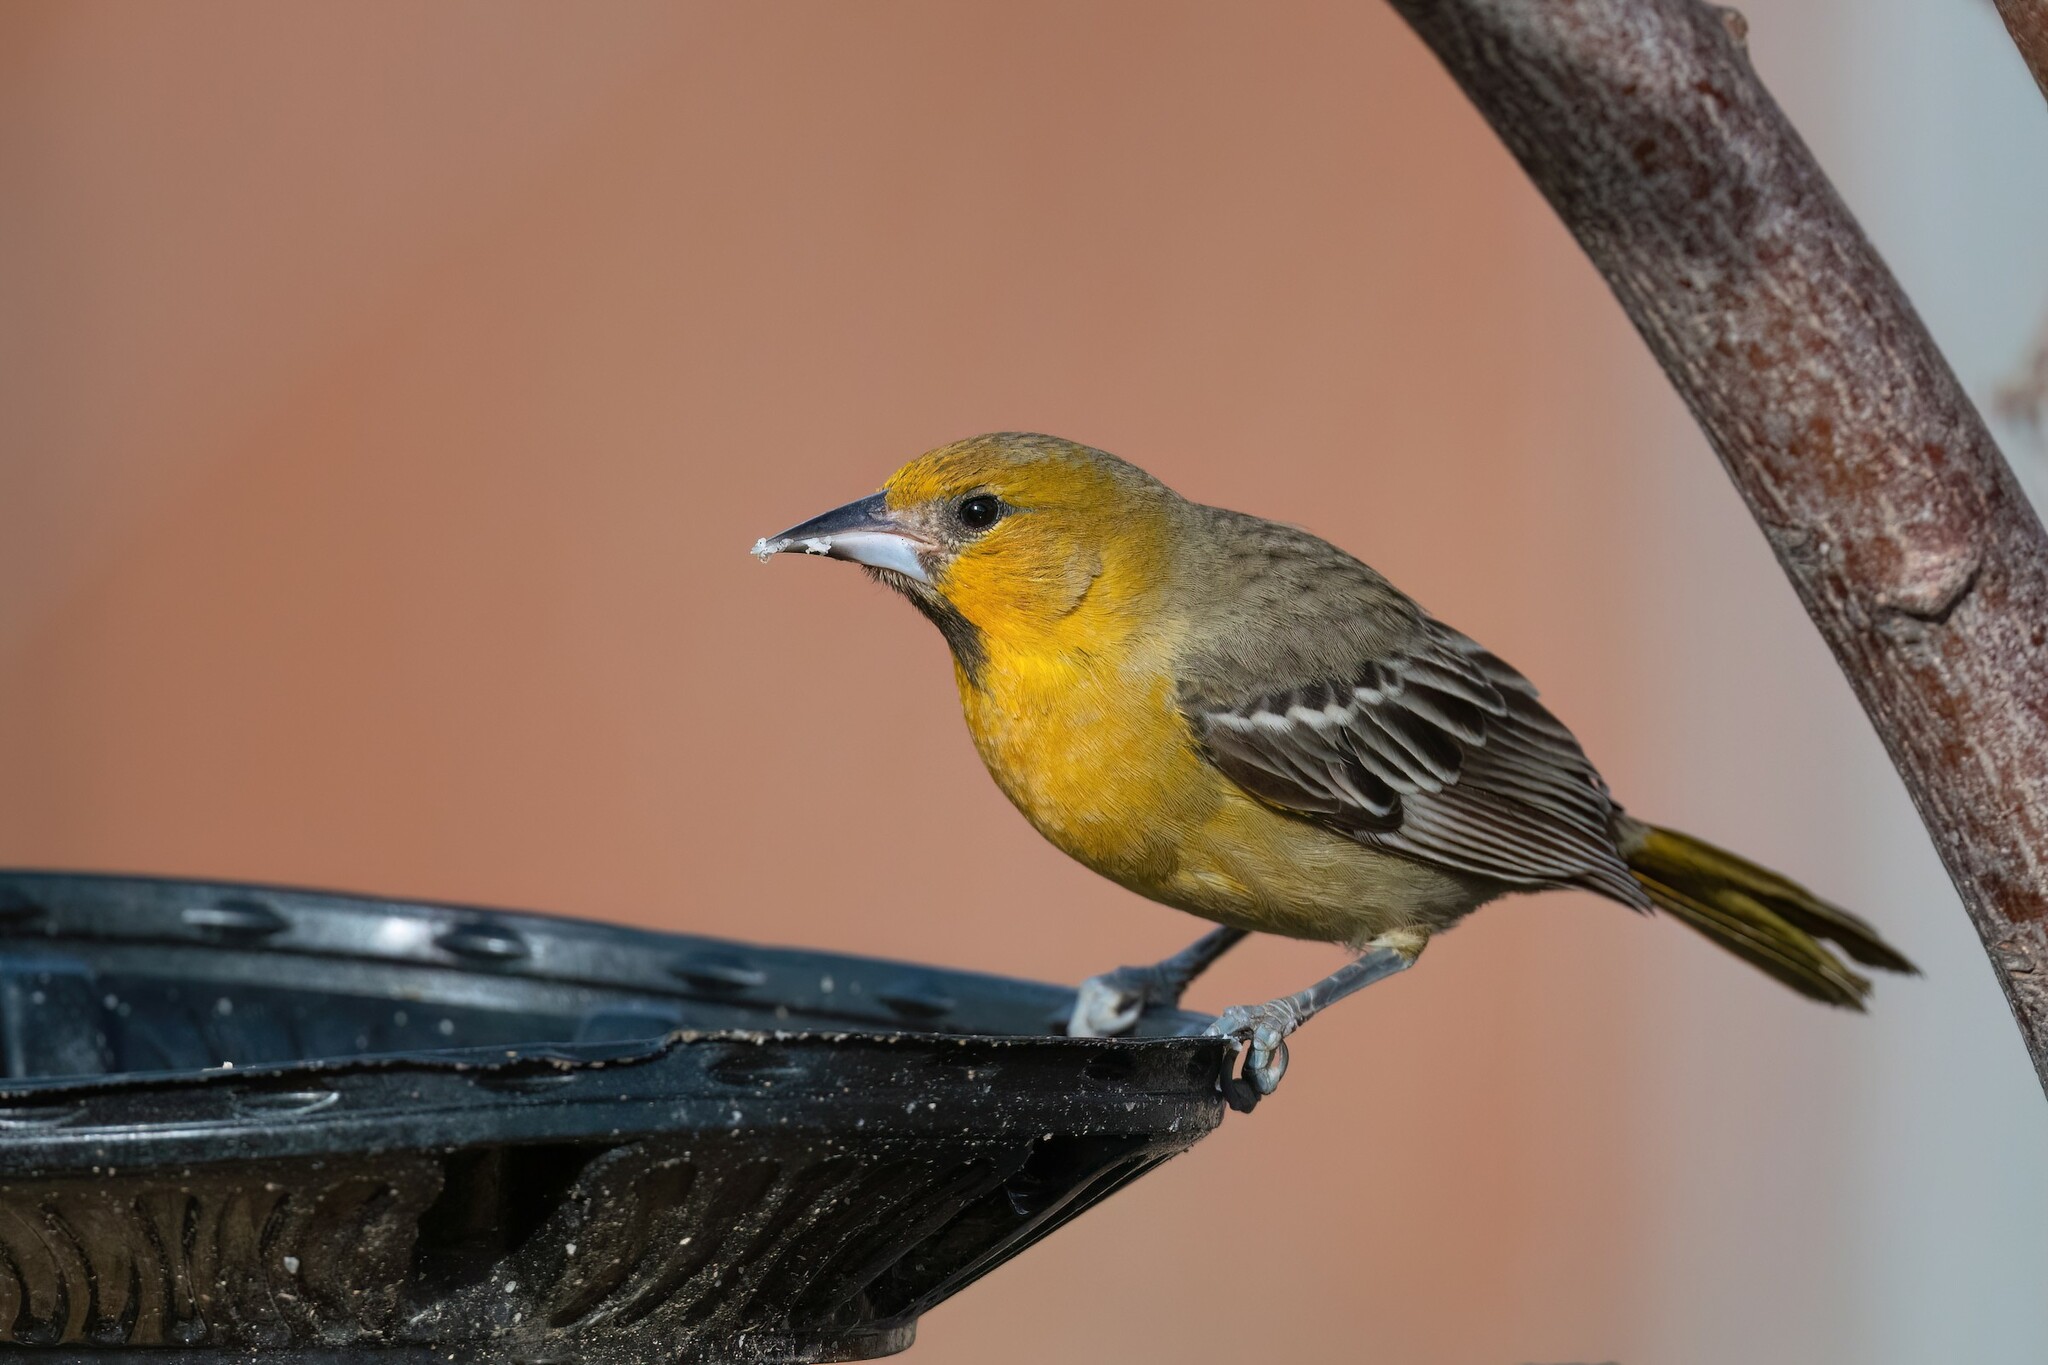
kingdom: Animalia
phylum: Chordata
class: Aves
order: Passeriformes
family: Icteridae
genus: Icterus
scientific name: Icterus pustulatus
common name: Streak-backed oriole
